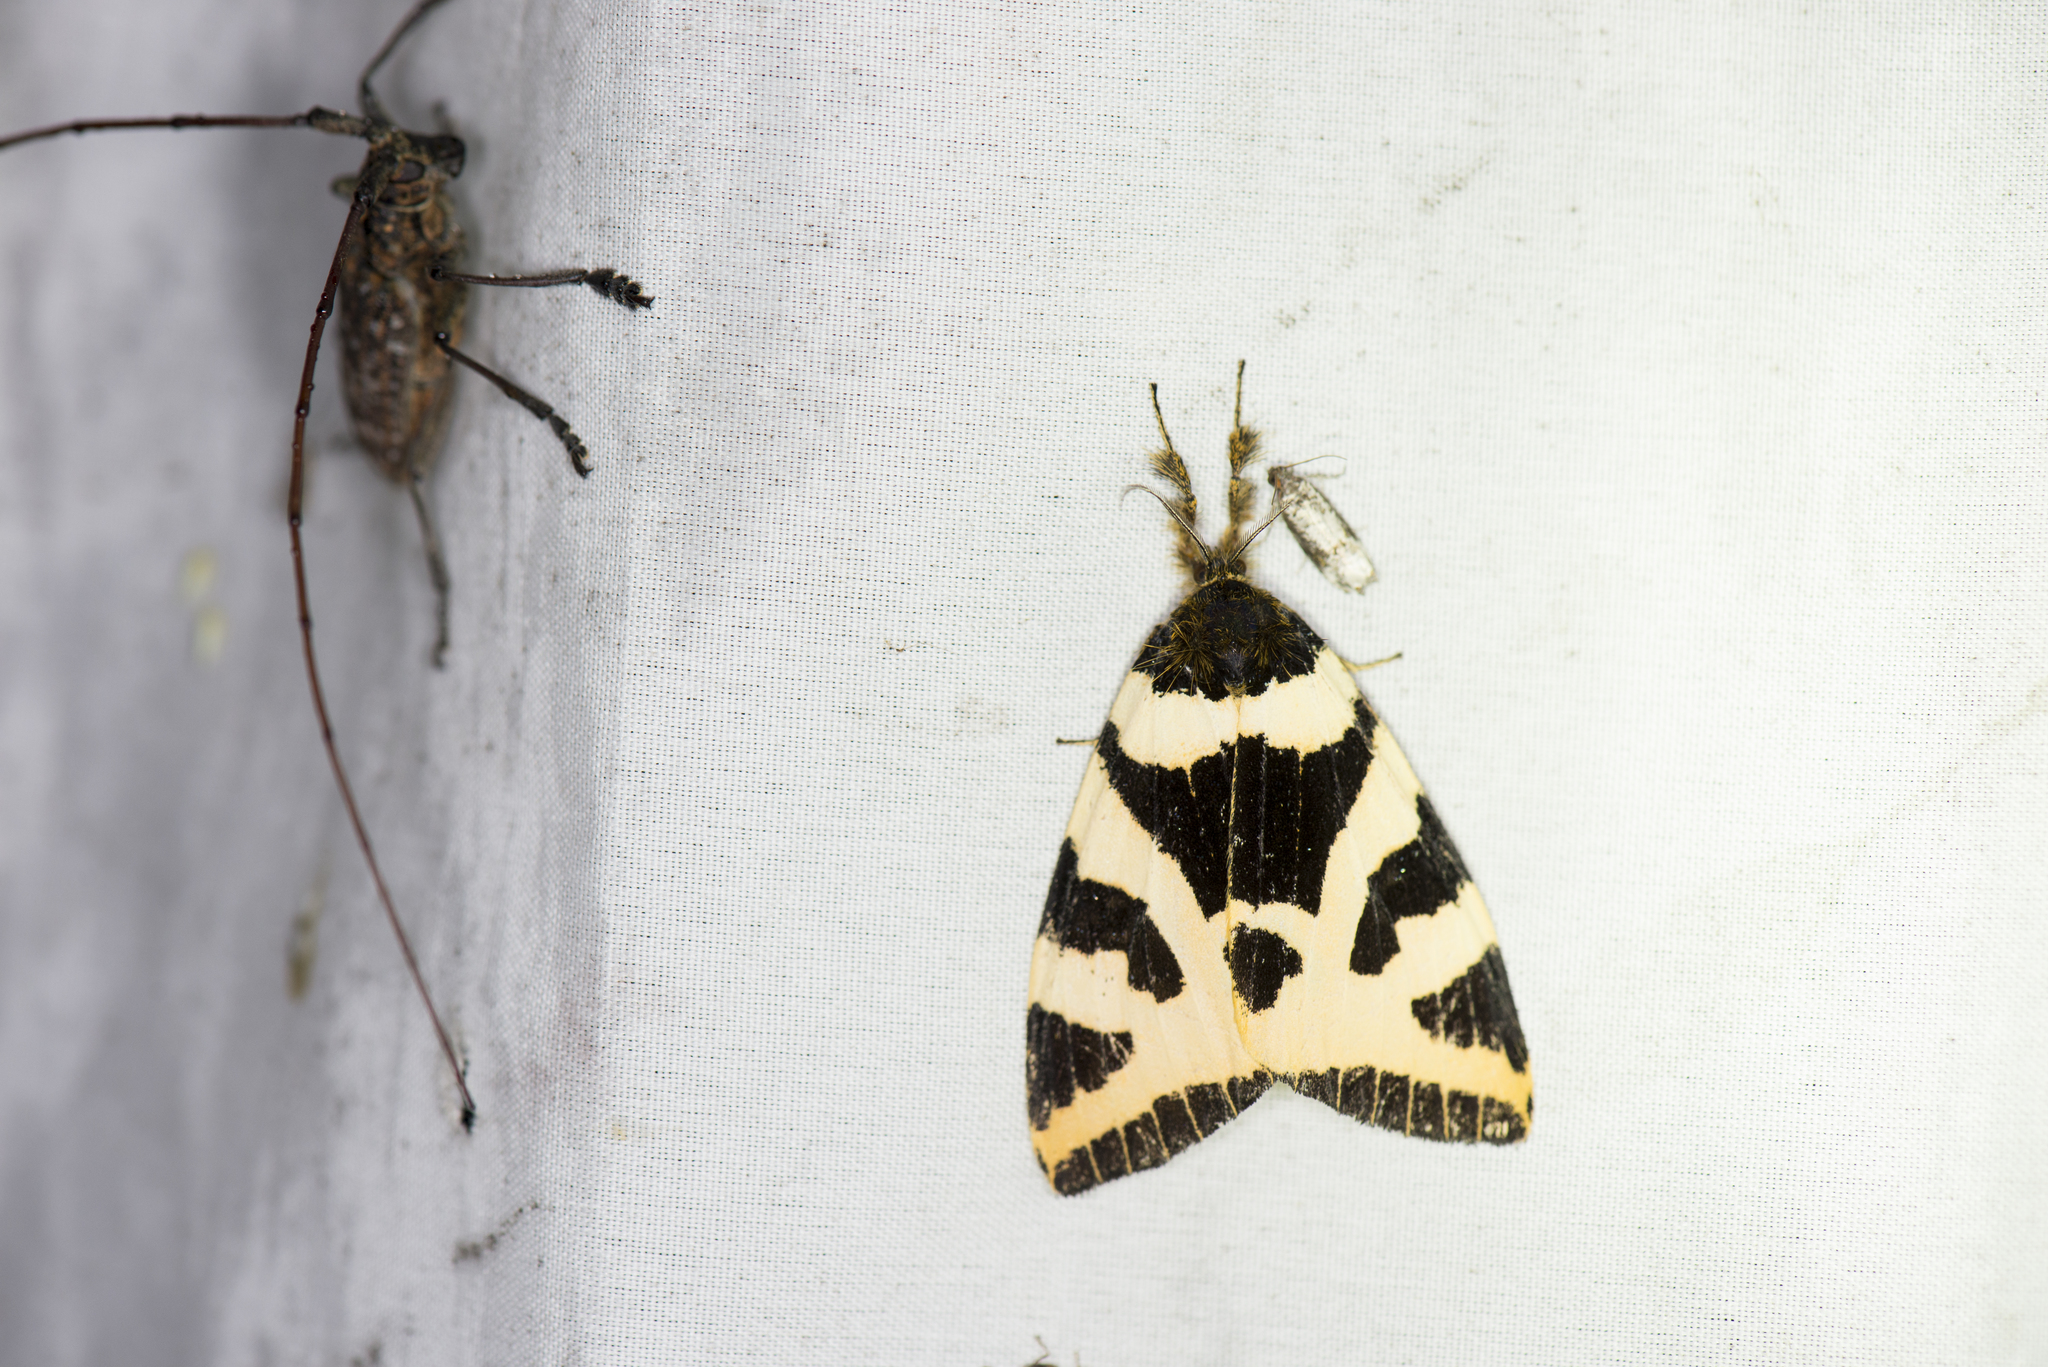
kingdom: Animalia
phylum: Arthropoda
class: Insecta
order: Lepidoptera
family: Erebidae
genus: Numenes
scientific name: Numenes takamukui
